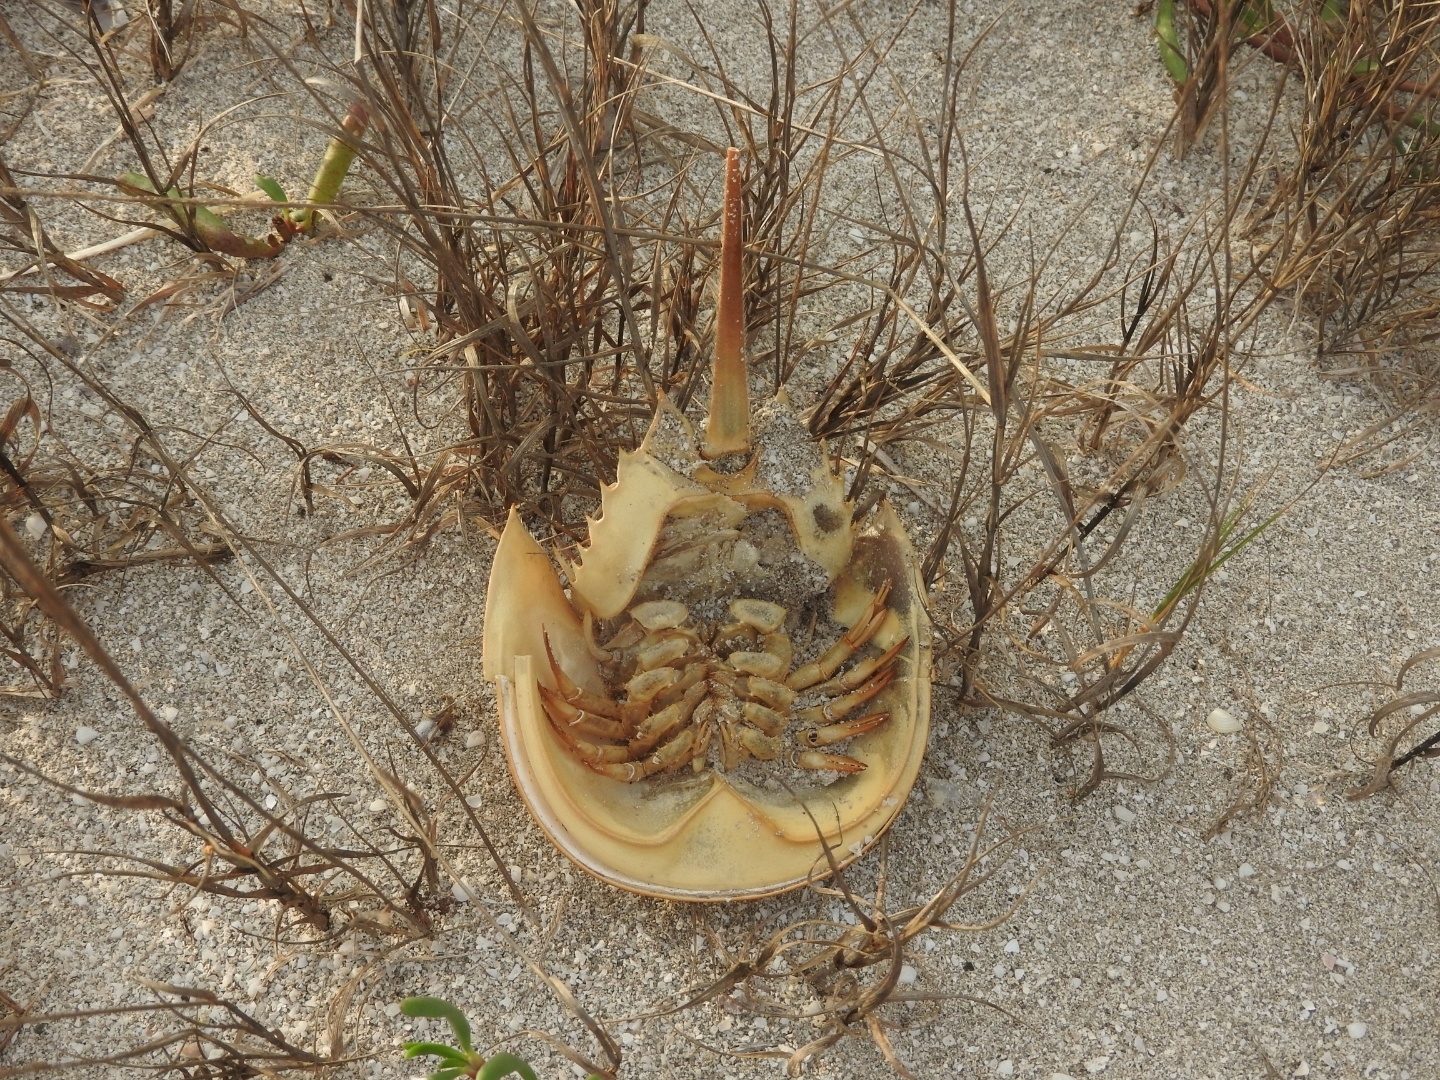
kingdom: Animalia
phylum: Arthropoda
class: Merostomata
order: Xiphosurida
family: Limulidae
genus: Limulus
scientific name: Limulus polyphemus
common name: Horseshoe crab
